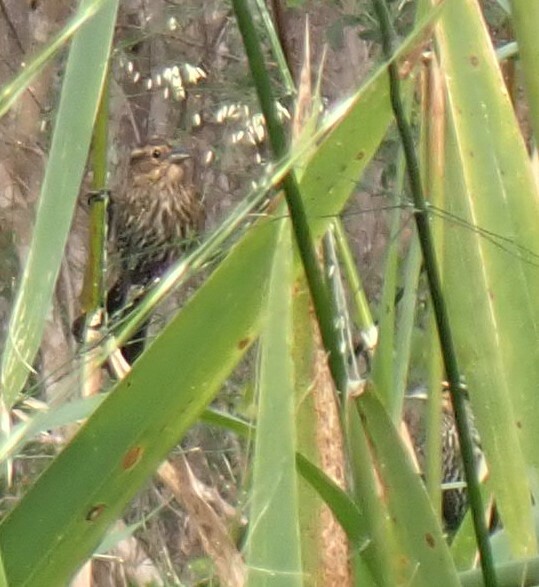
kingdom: Animalia
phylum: Chordata
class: Aves
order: Passeriformes
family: Icteridae
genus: Agelaius
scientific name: Agelaius phoeniceus
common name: Red-winged blackbird
